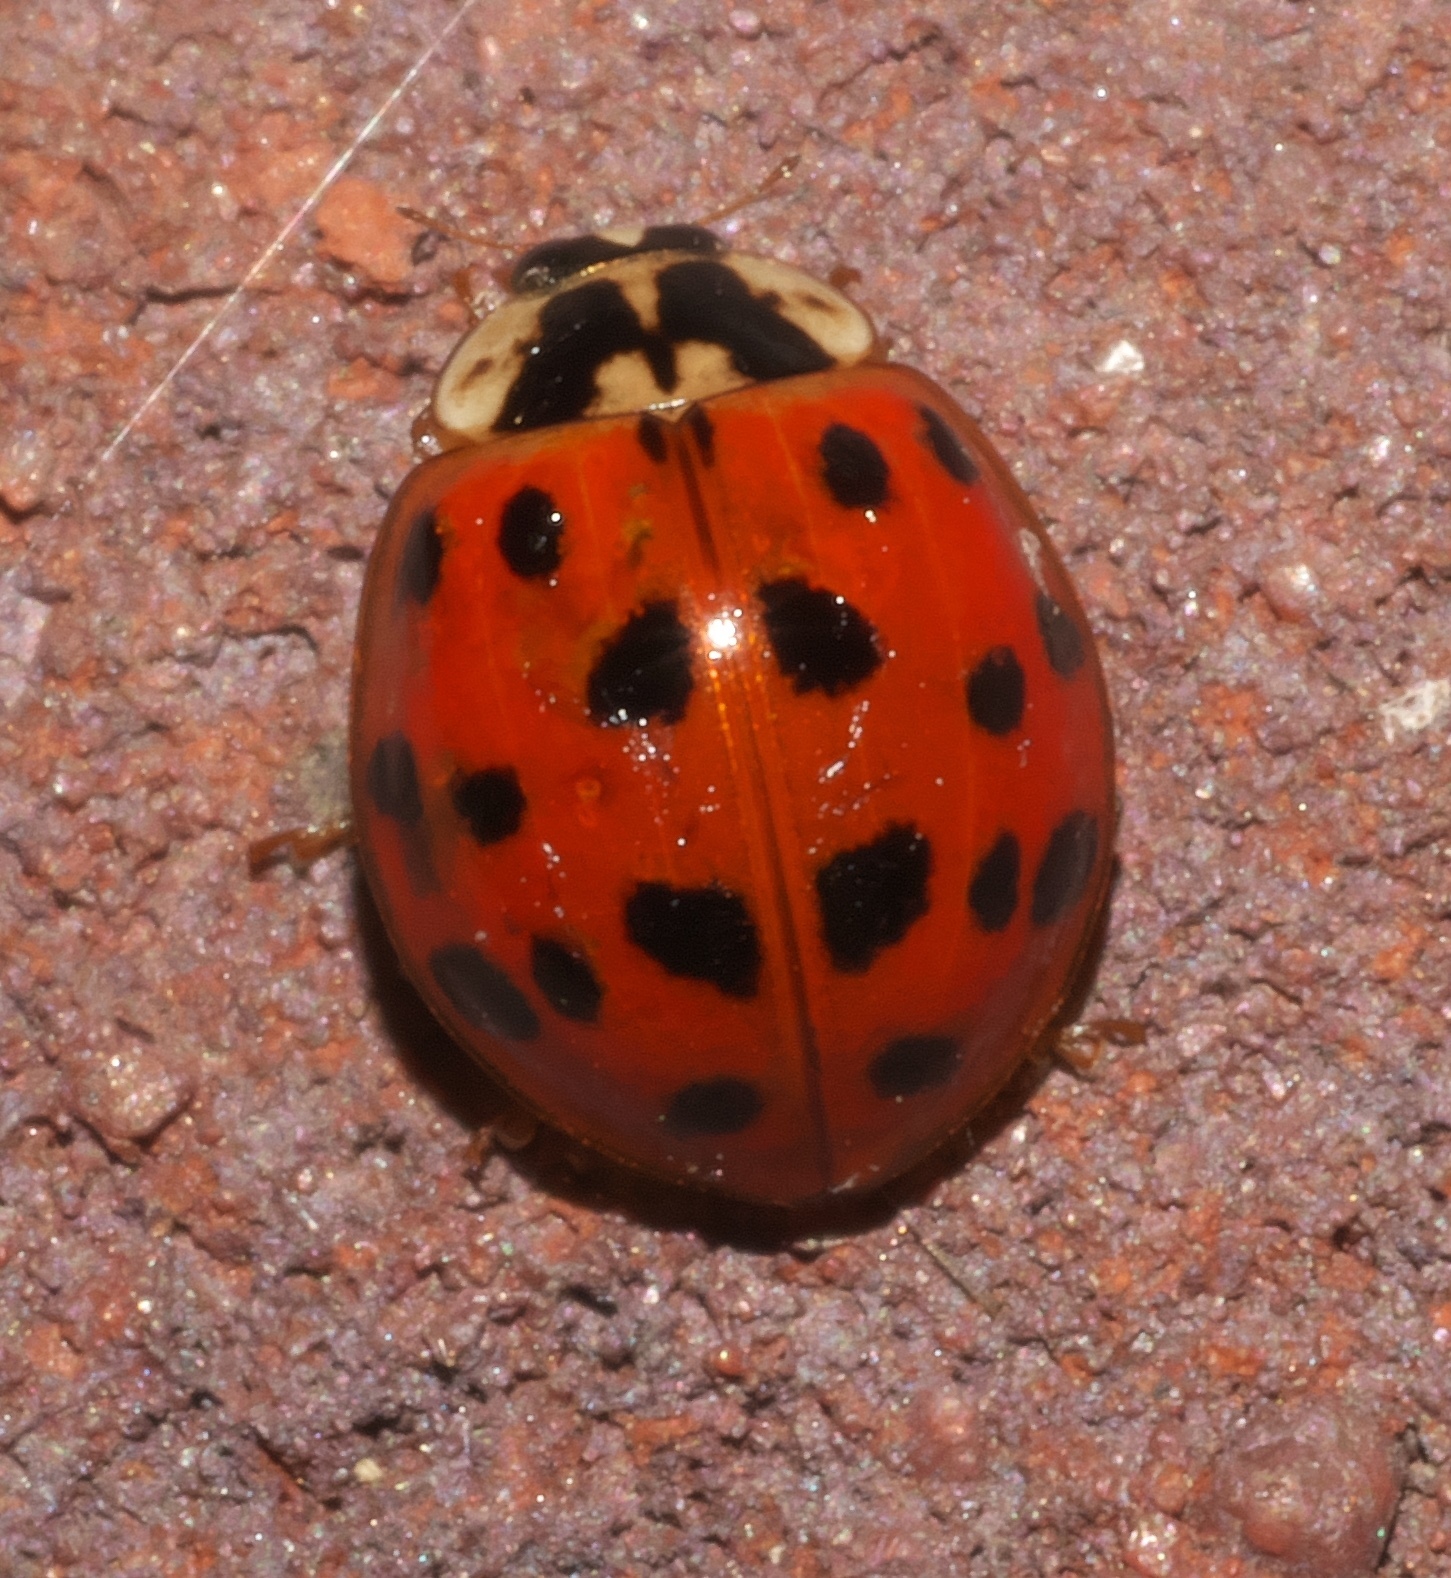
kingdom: Animalia
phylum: Arthropoda
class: Insecta
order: Coleoptera
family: Coccinellidae
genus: Harmonia
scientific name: Harmonia axyridis
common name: Harlequin ladybird
